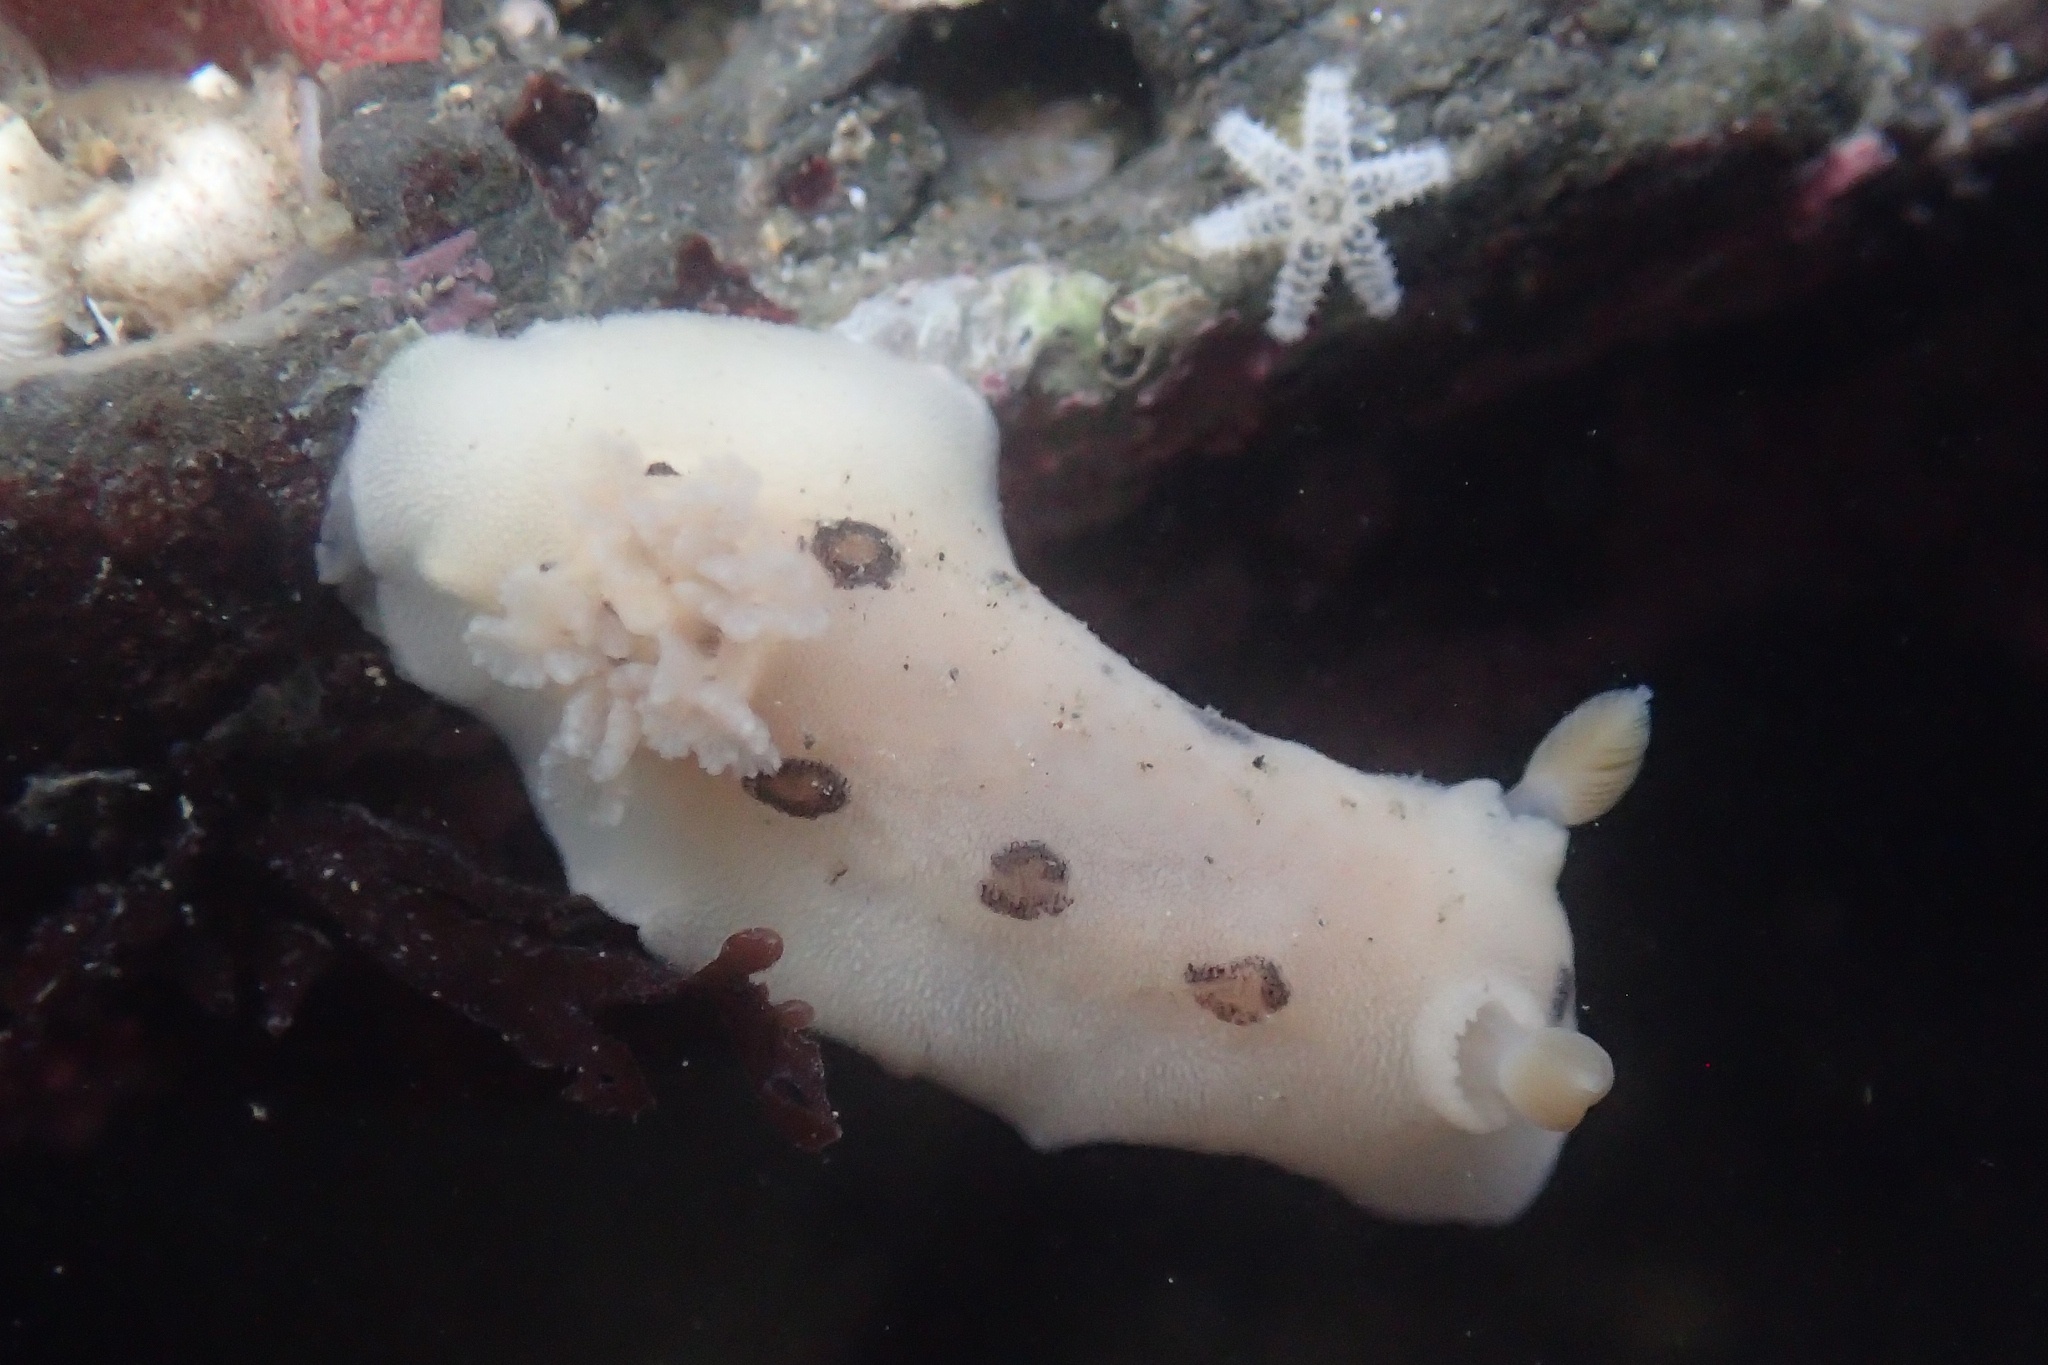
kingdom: Animalia
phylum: Mollusca
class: Gastropoda
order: Nudibranchia
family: Discodorididae
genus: Diaulula
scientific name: Diaulula sandiegensis
